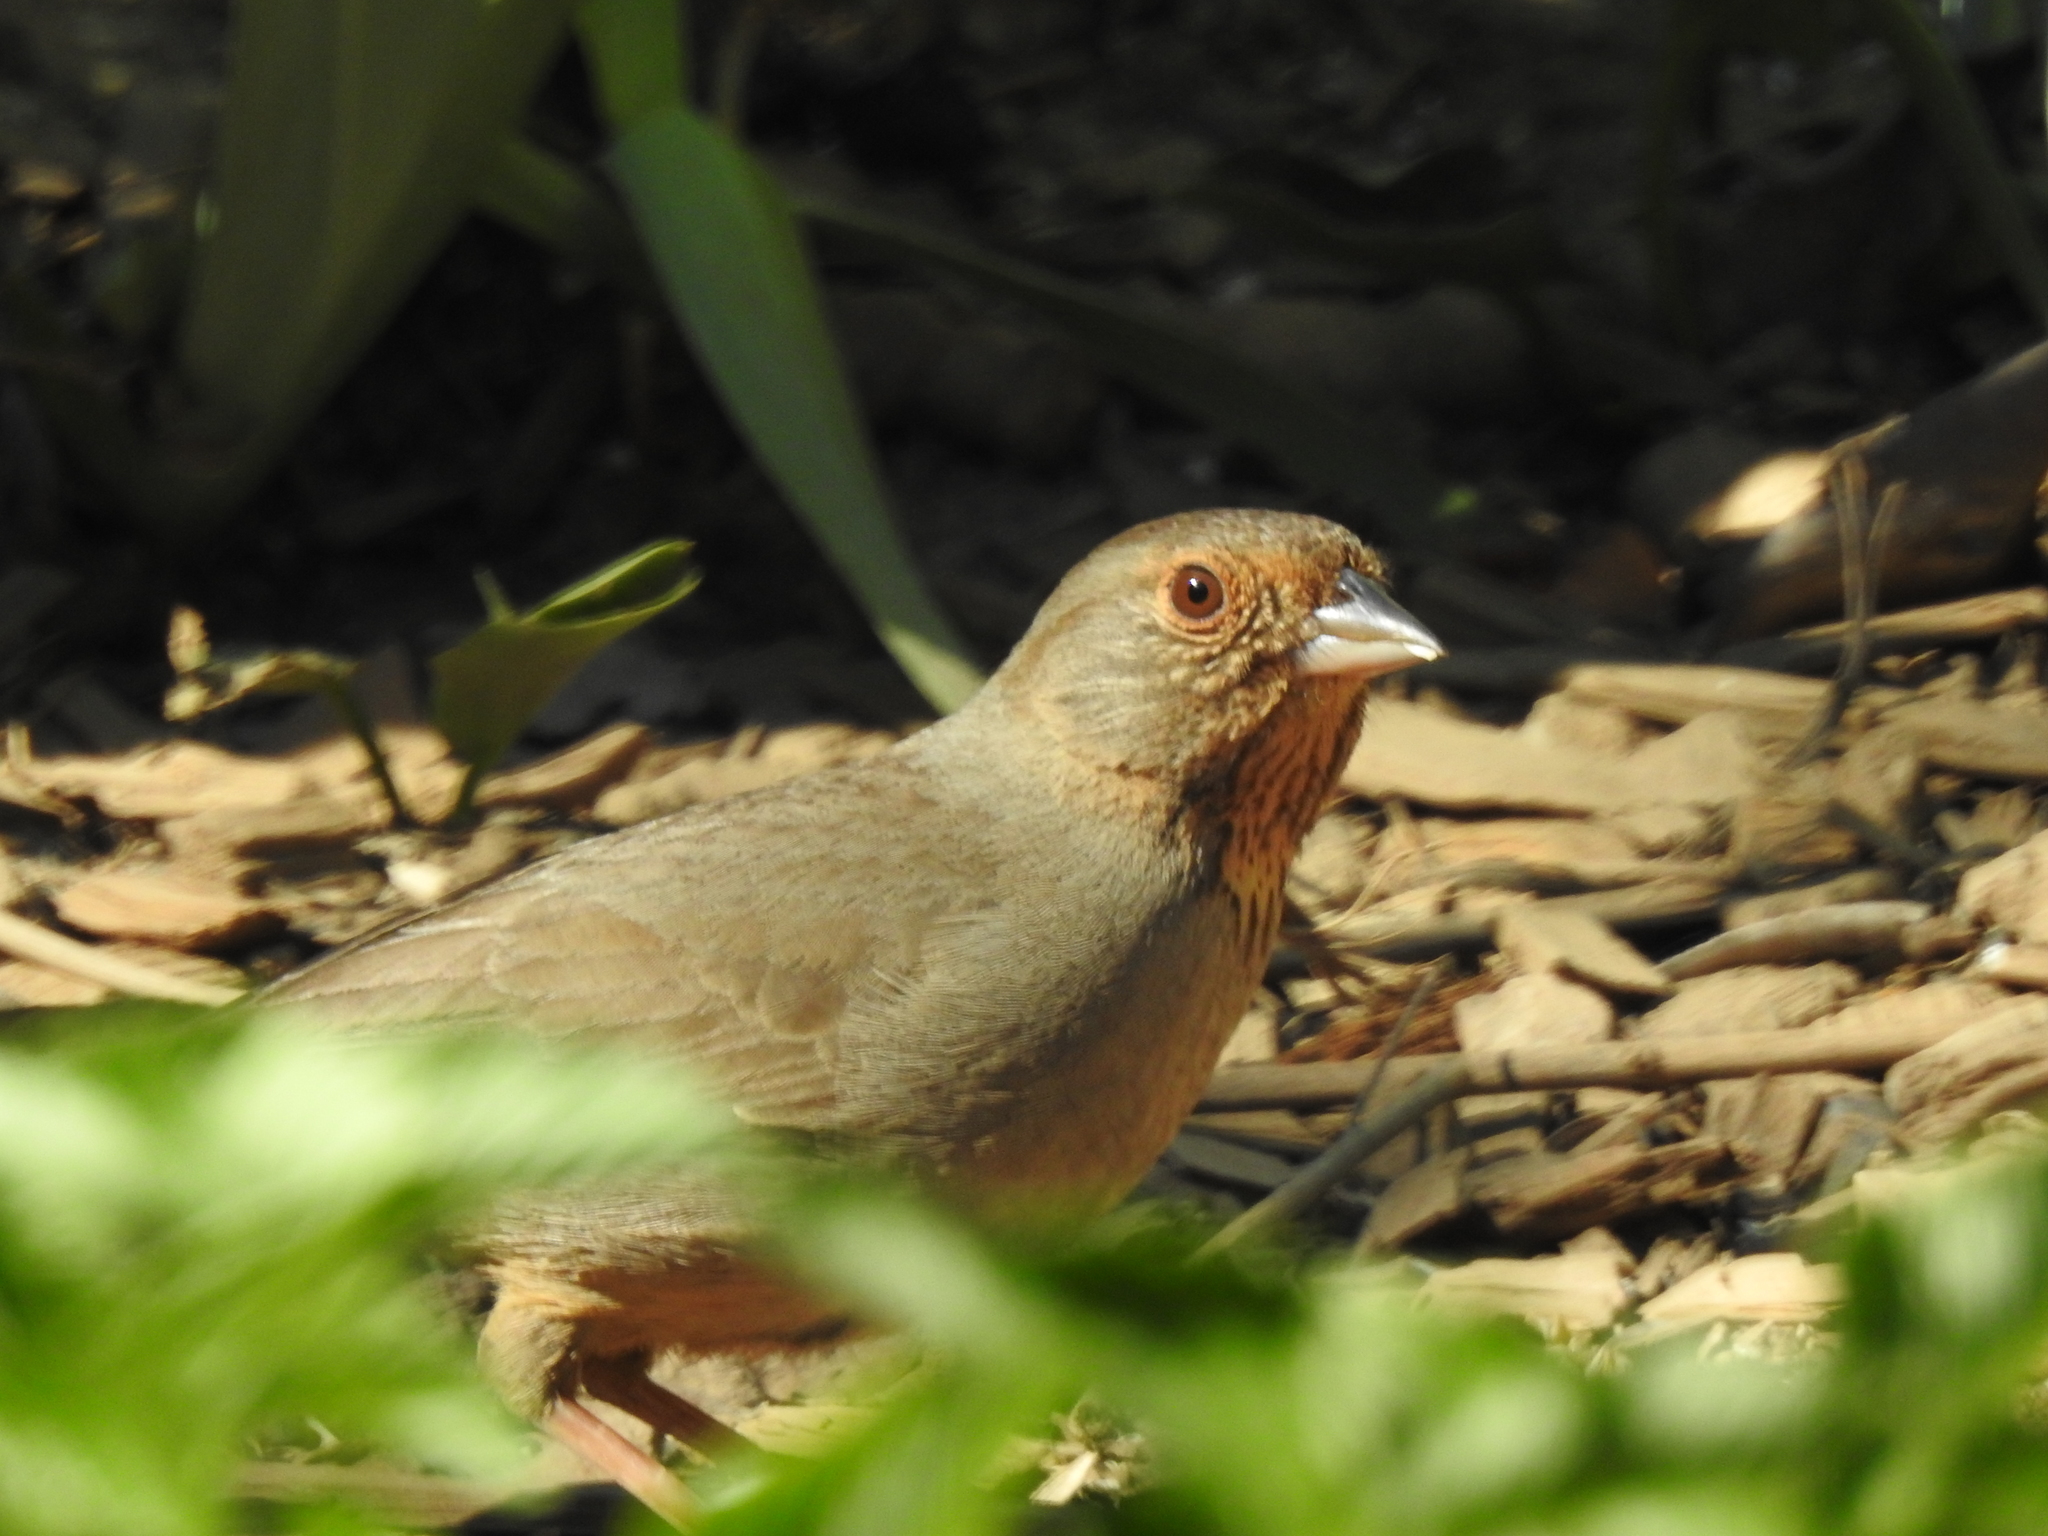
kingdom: Animalia
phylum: Chordata
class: Aves
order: Passeriformes
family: Passerellidae
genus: Melozone
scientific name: Melozone crissalis
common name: California towhee
